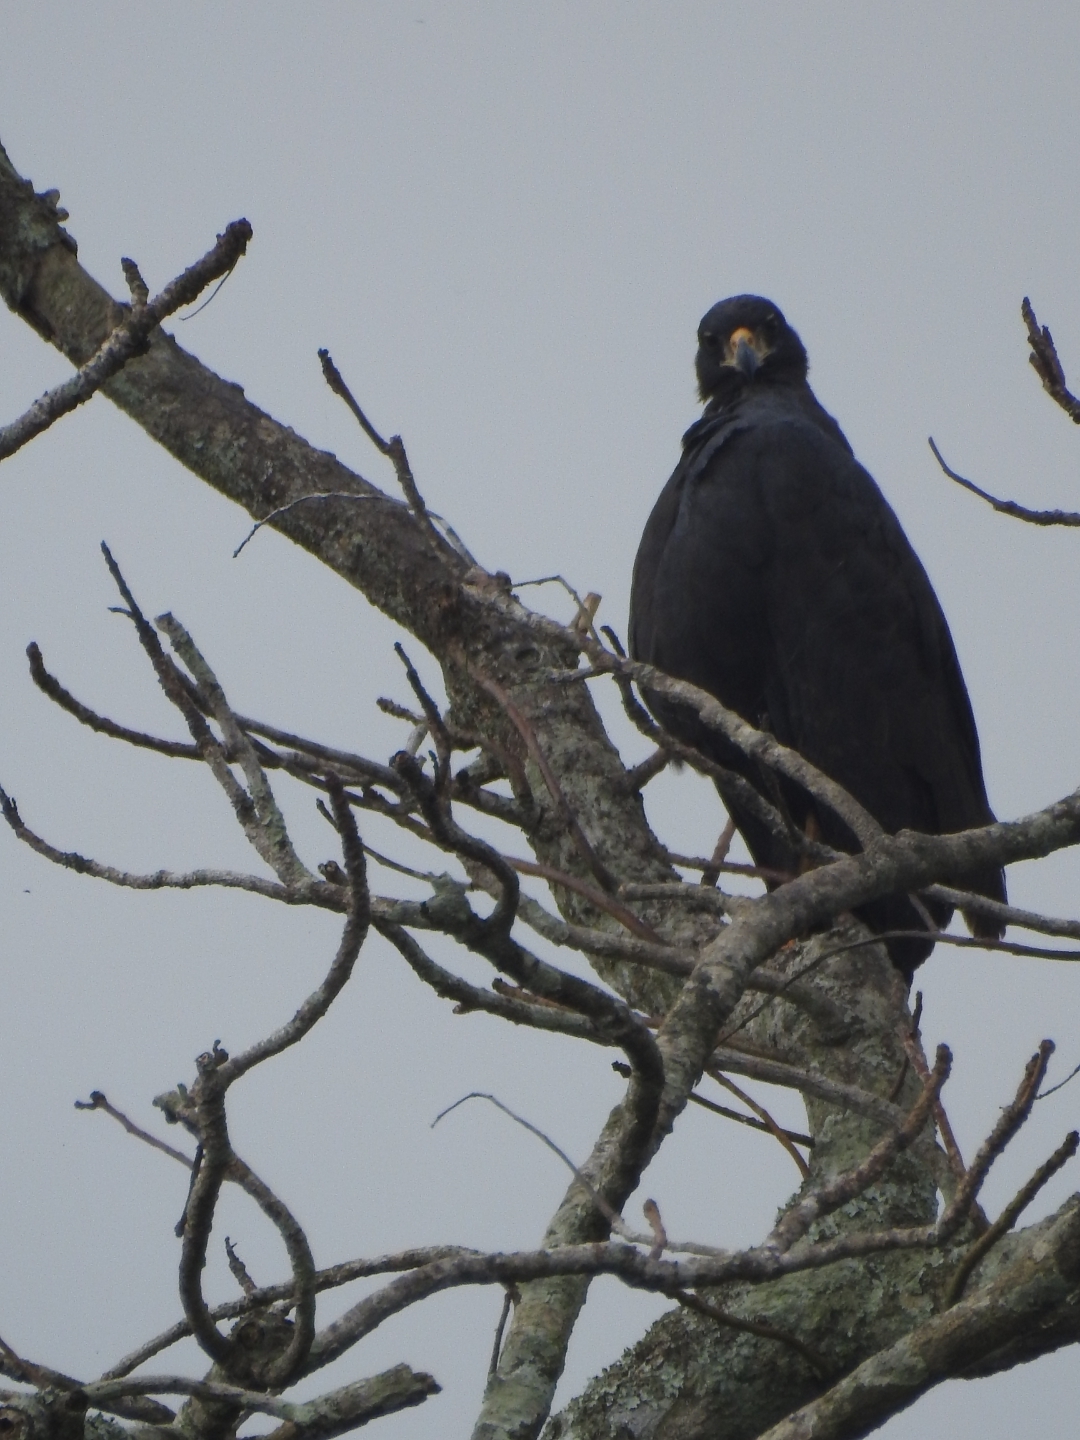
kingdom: Animalia
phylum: Chordata
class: Aves
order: Accipitriformes
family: Accipitridae
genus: Buteogallus
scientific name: Buteogallus anthracinus
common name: Common black hawk
